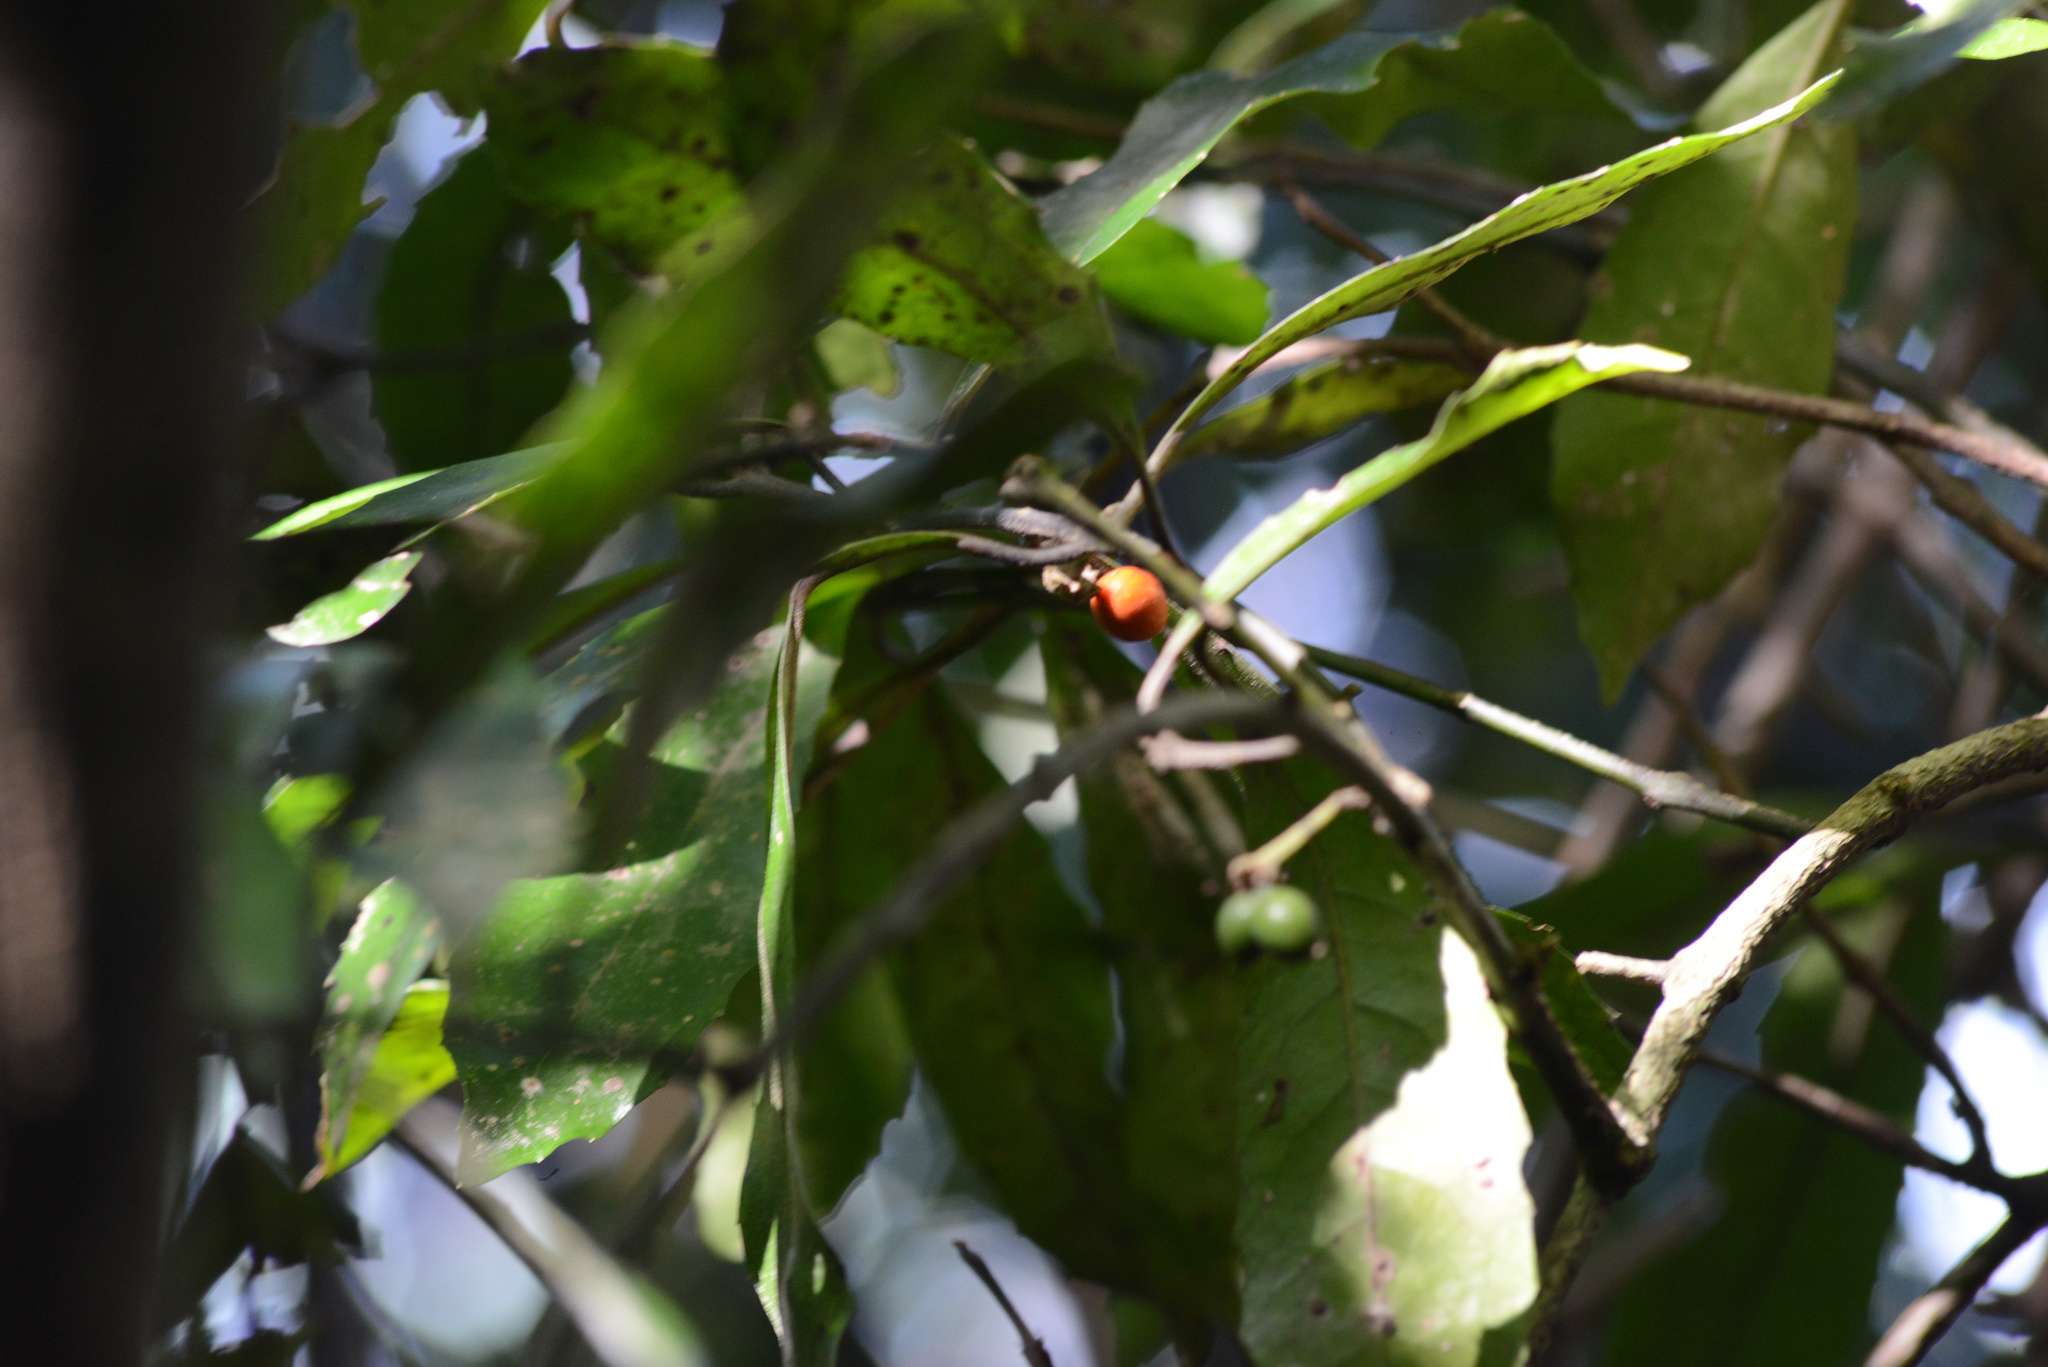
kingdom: Plantae
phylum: Tracheophyta
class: Magnoliopsida
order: Laurales
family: Monimiaceae
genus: Hedycarya
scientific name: Hedycarya arborea
